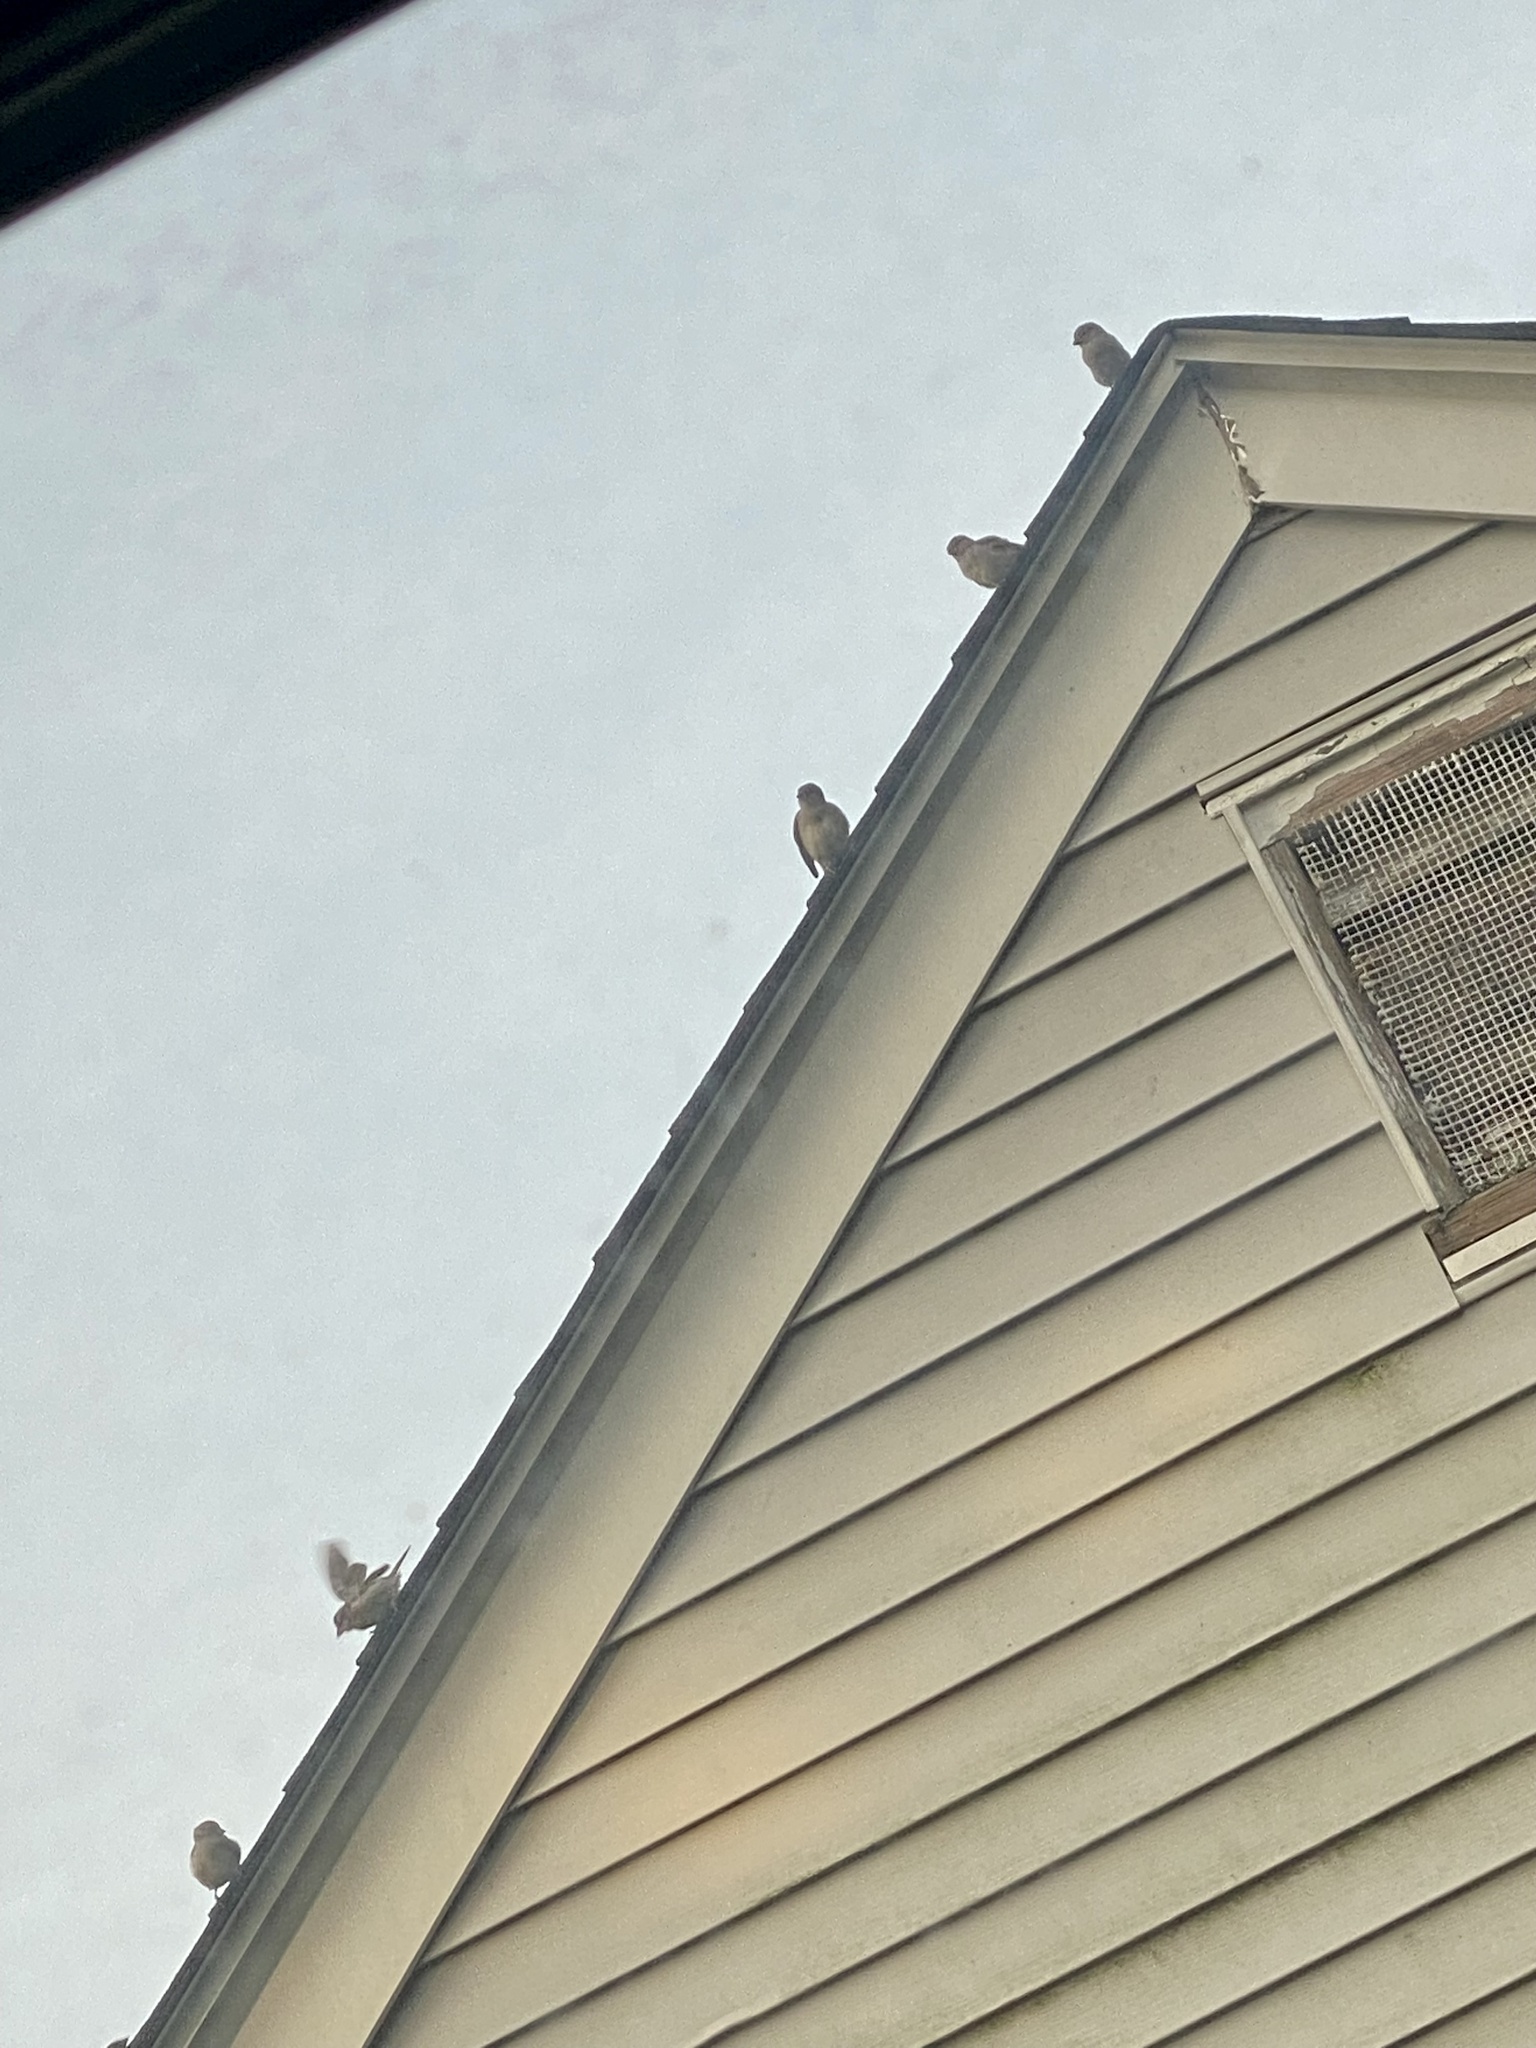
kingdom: Animalia
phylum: Chordata
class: Aves
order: Passeriformes
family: Passeridae
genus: Passer
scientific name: Passer domesticus
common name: House sparrow
